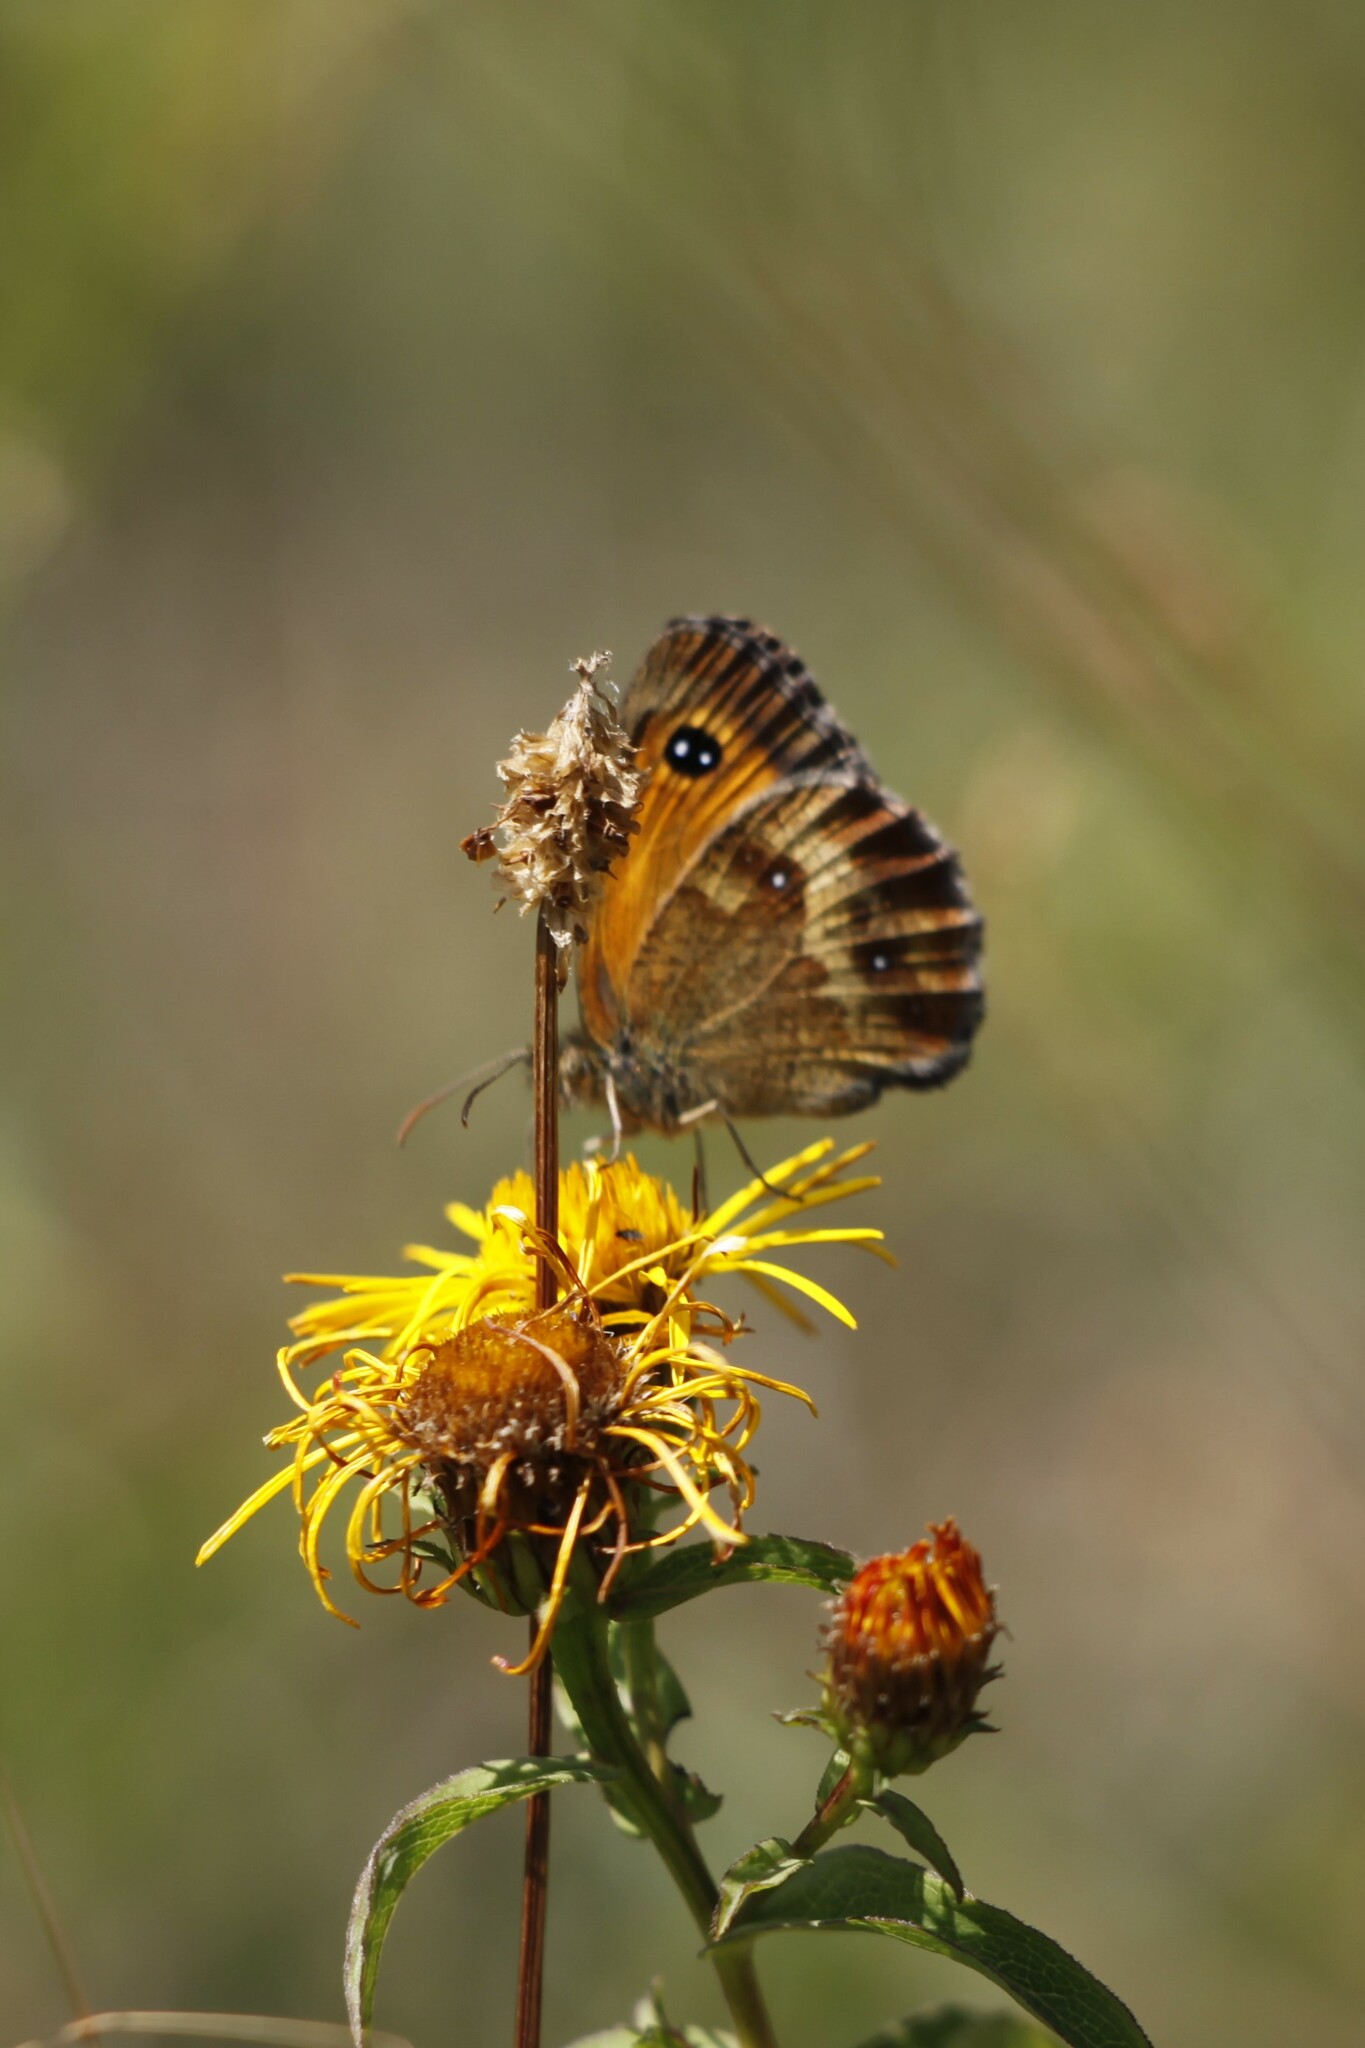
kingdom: Animalia
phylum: Arthropoda
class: Insecta
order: Lepidoptera
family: Nymphalidae
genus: Pyronia
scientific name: Pyronia tithonus
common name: Gatekeeper
